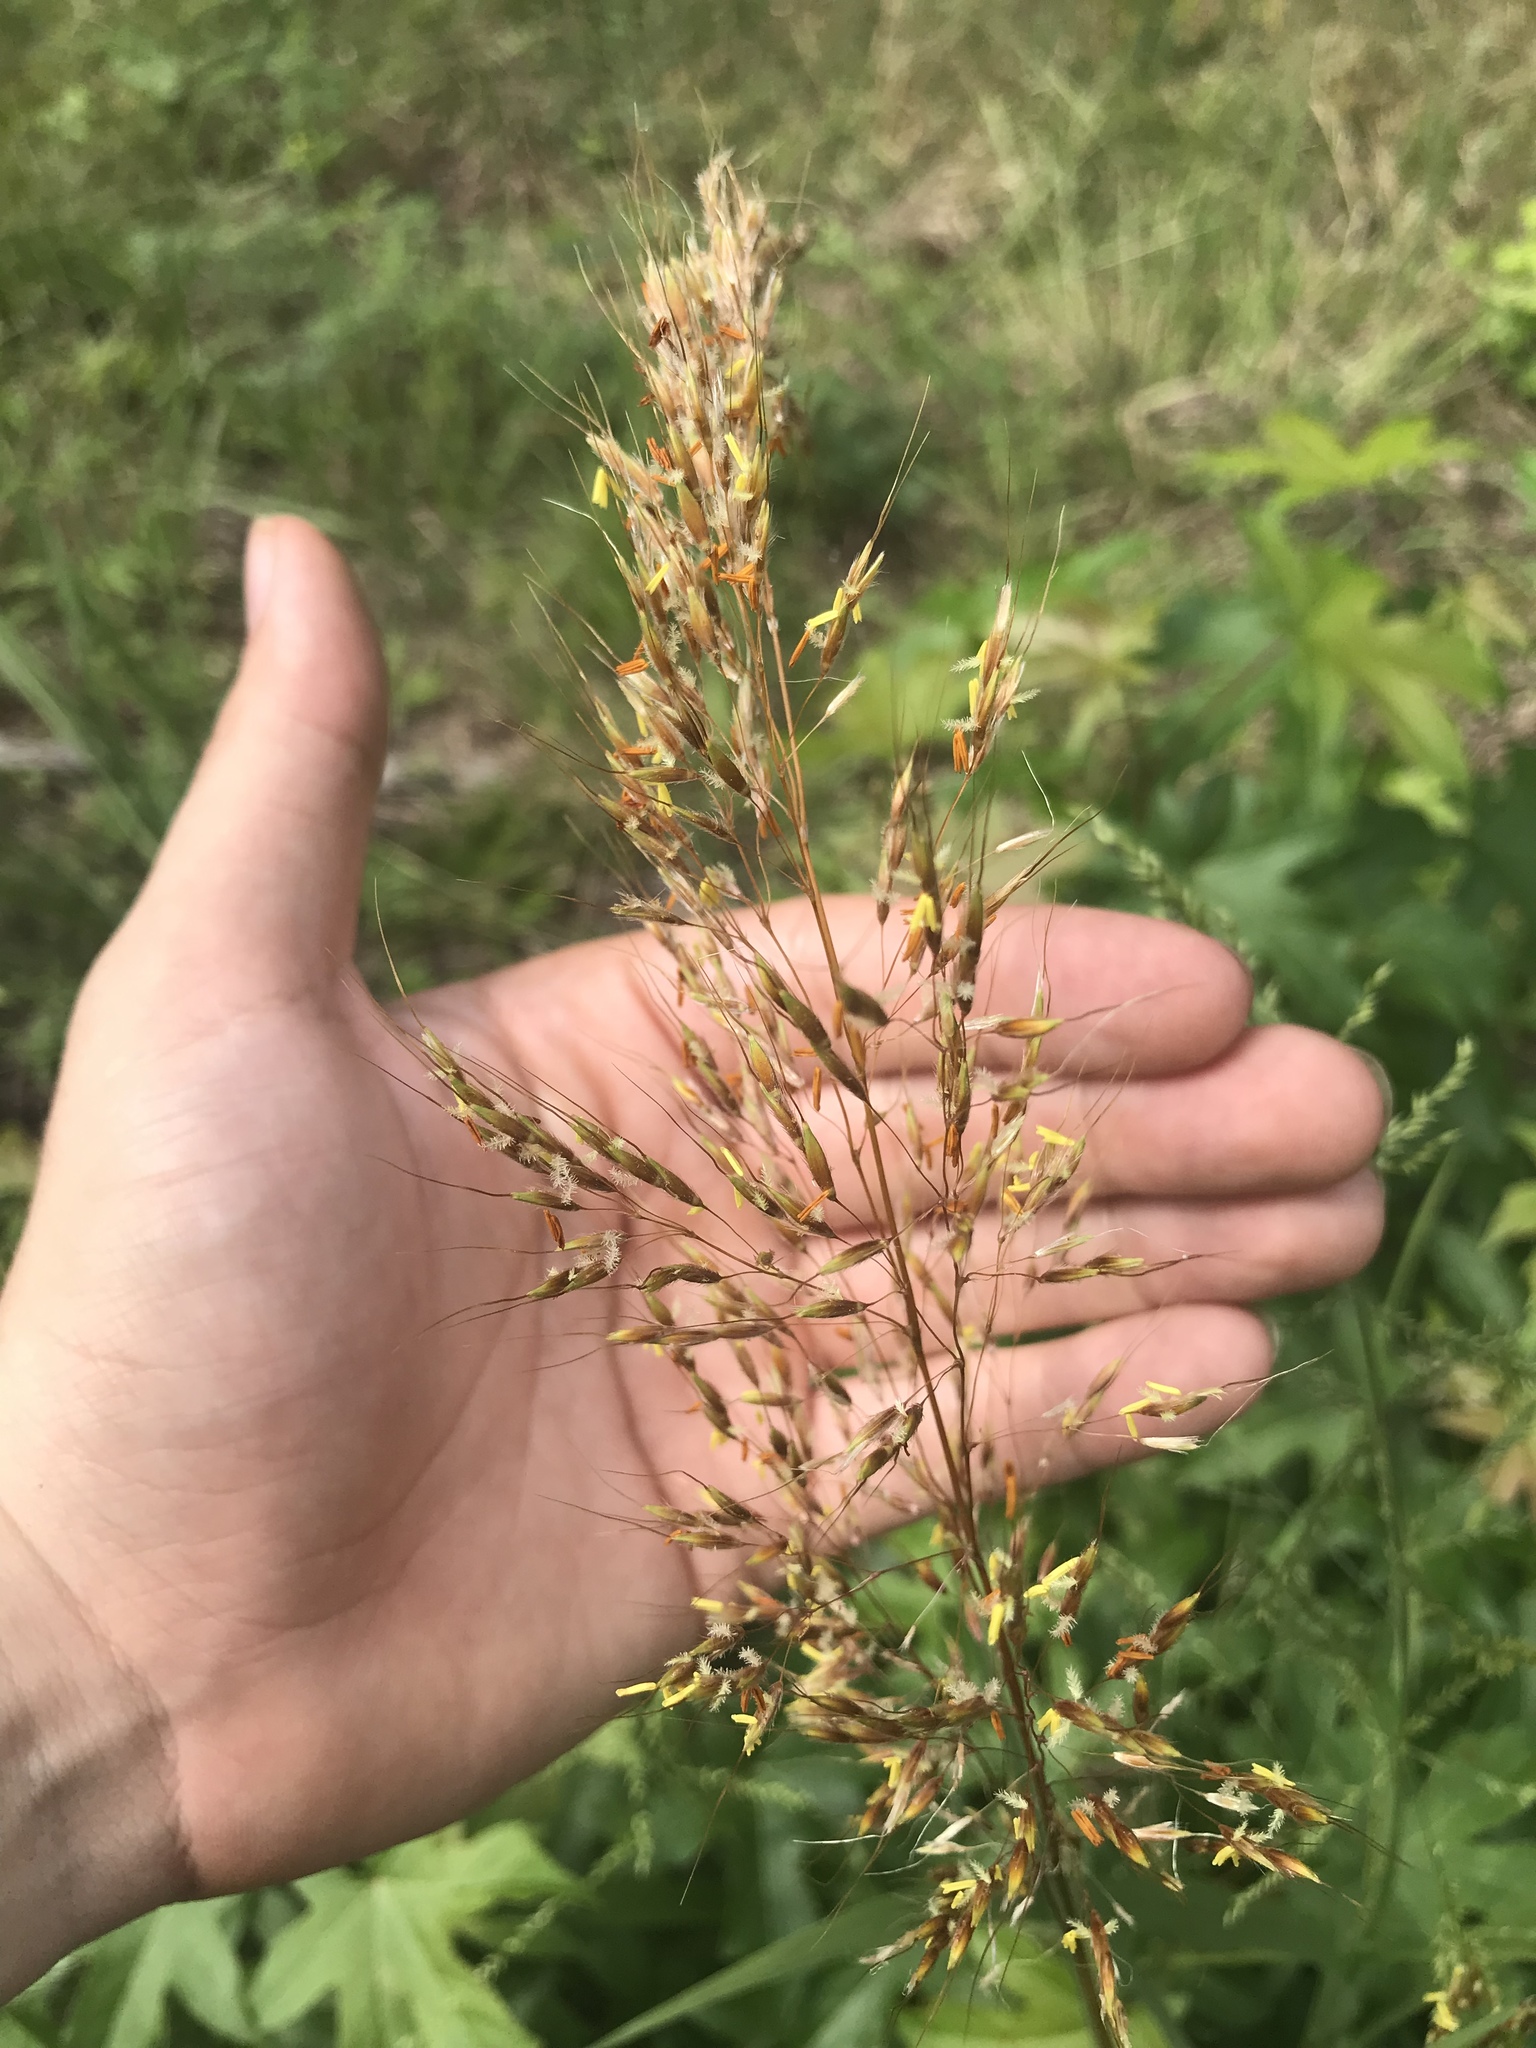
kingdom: Plantae
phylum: Tracheophyta
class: Liliopsida
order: Poales
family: Poaceae
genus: Sorghastrum
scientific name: Sorghastrum nutans
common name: Indian grass
